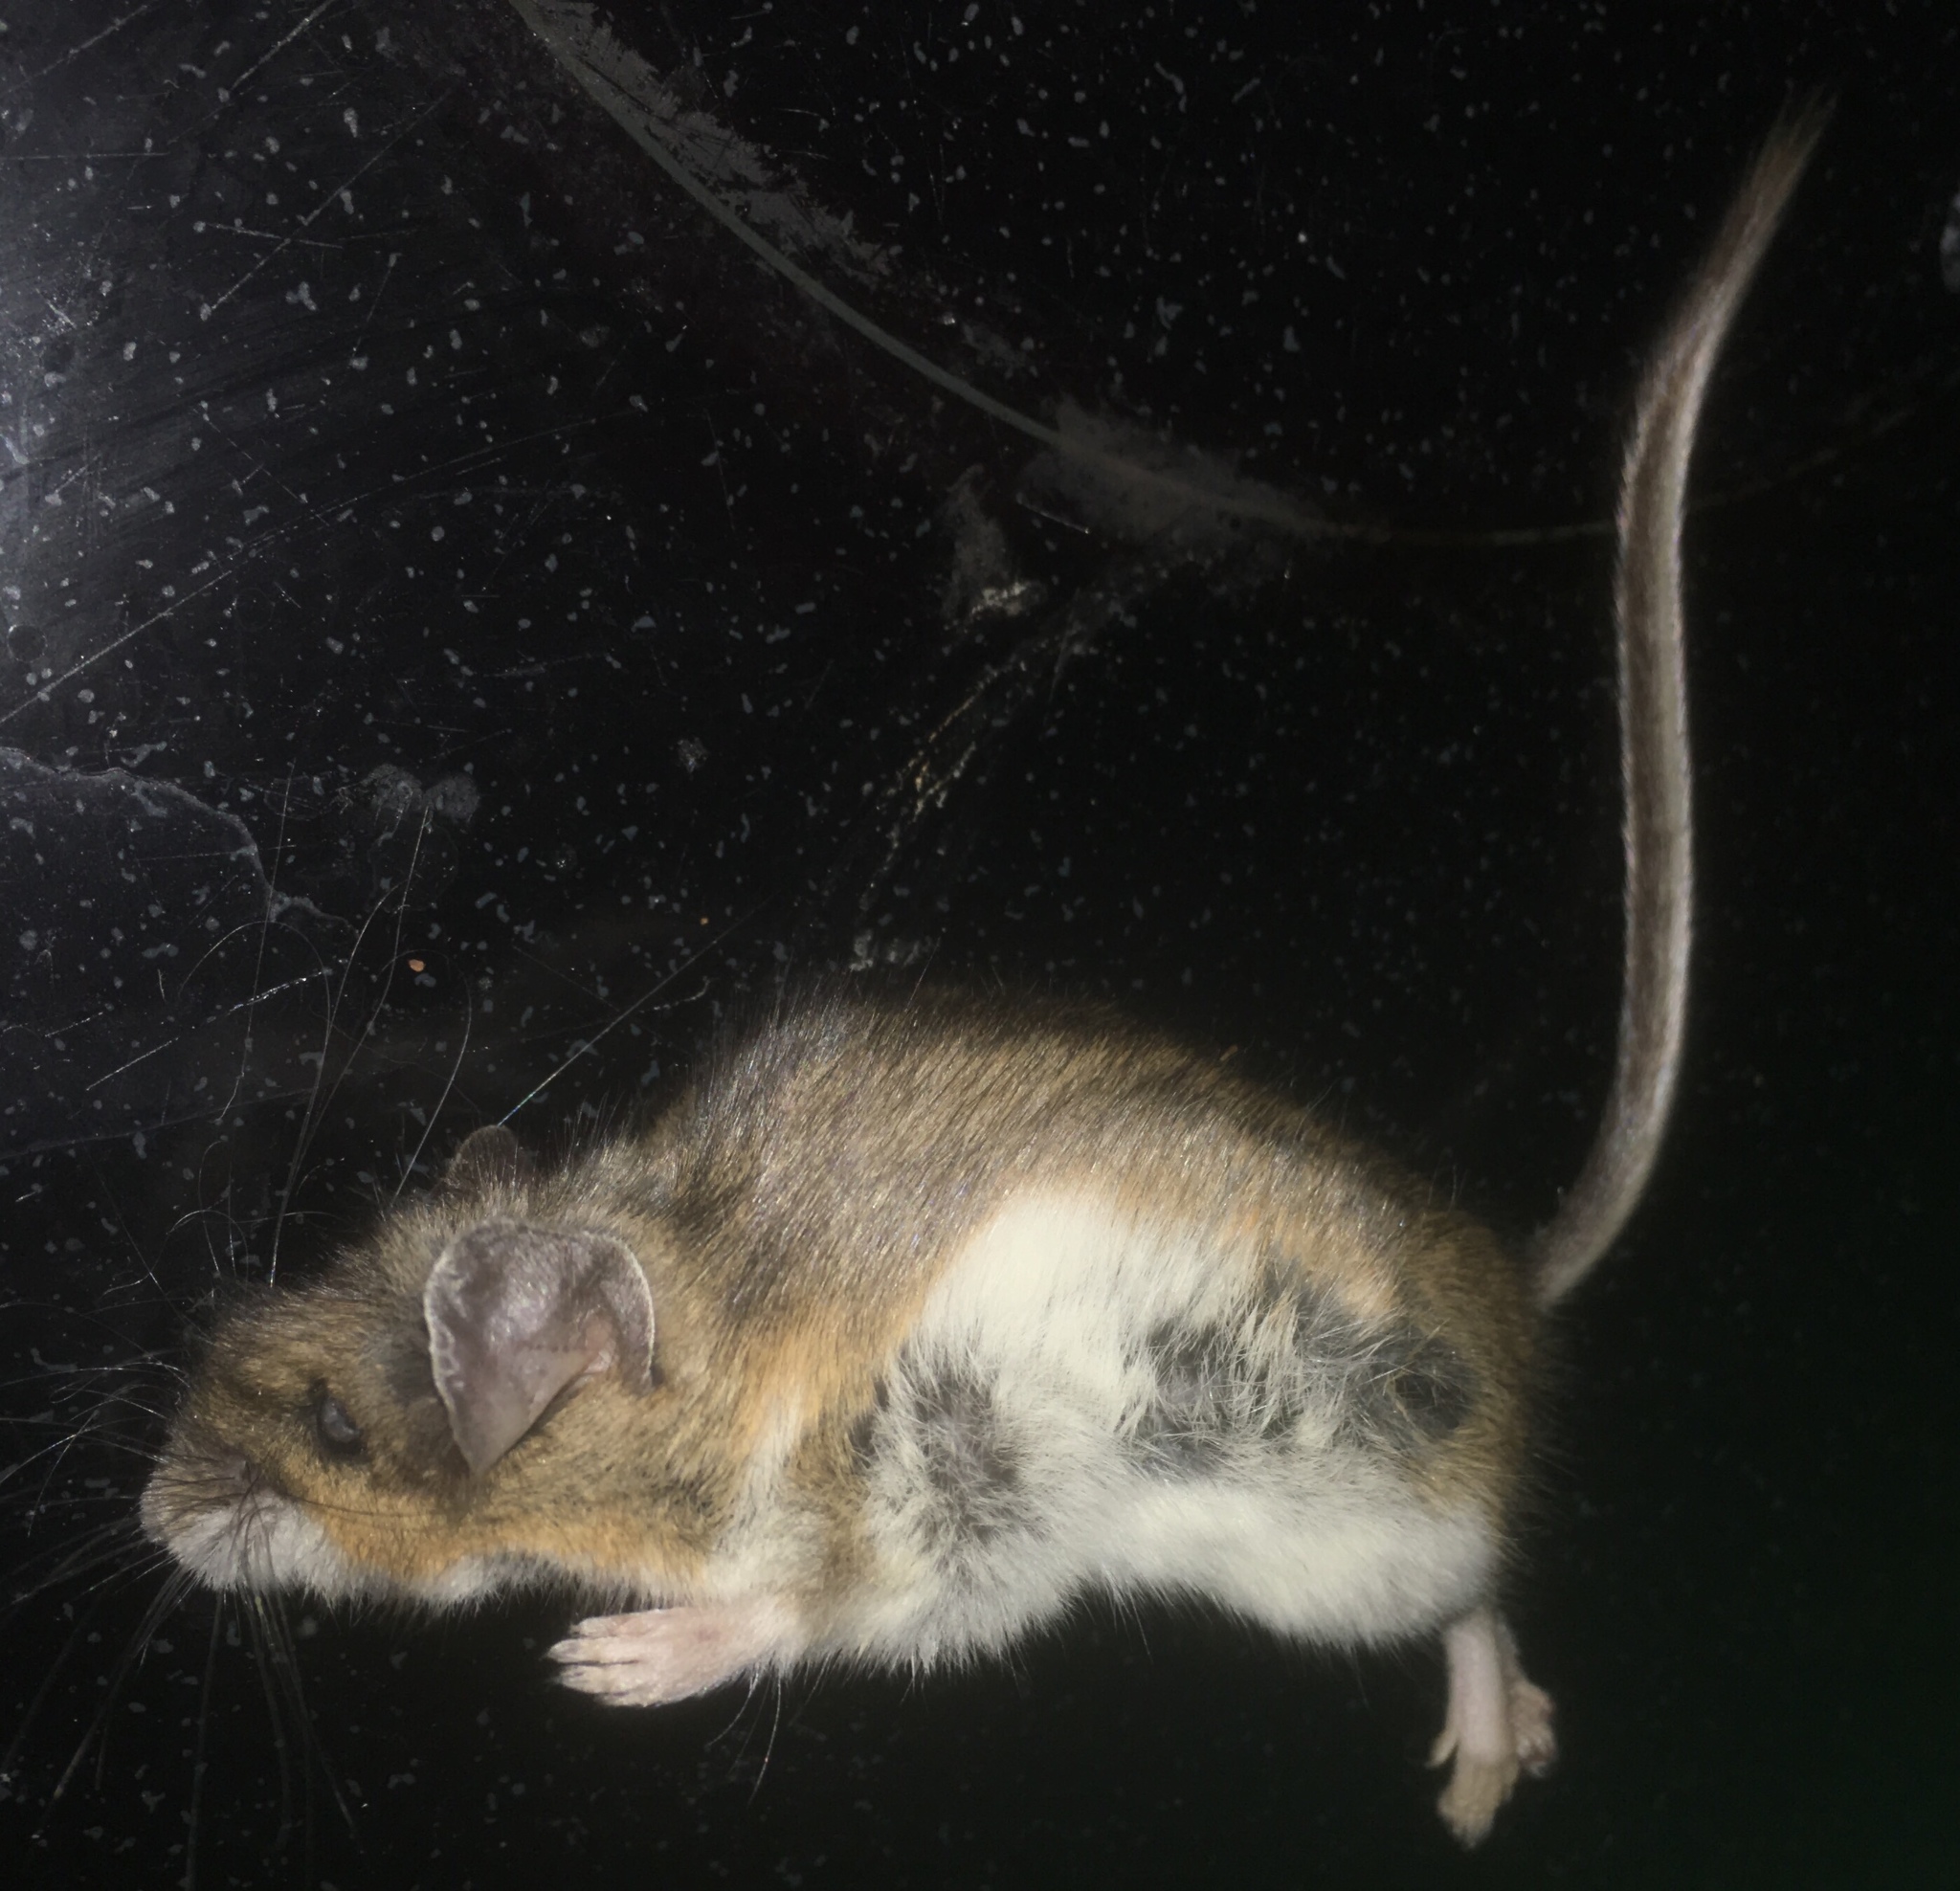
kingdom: Animalia
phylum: Chordata
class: Mammalia
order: Rodentia
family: Cricetidae
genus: Peromyscus
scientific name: Peromyscus
